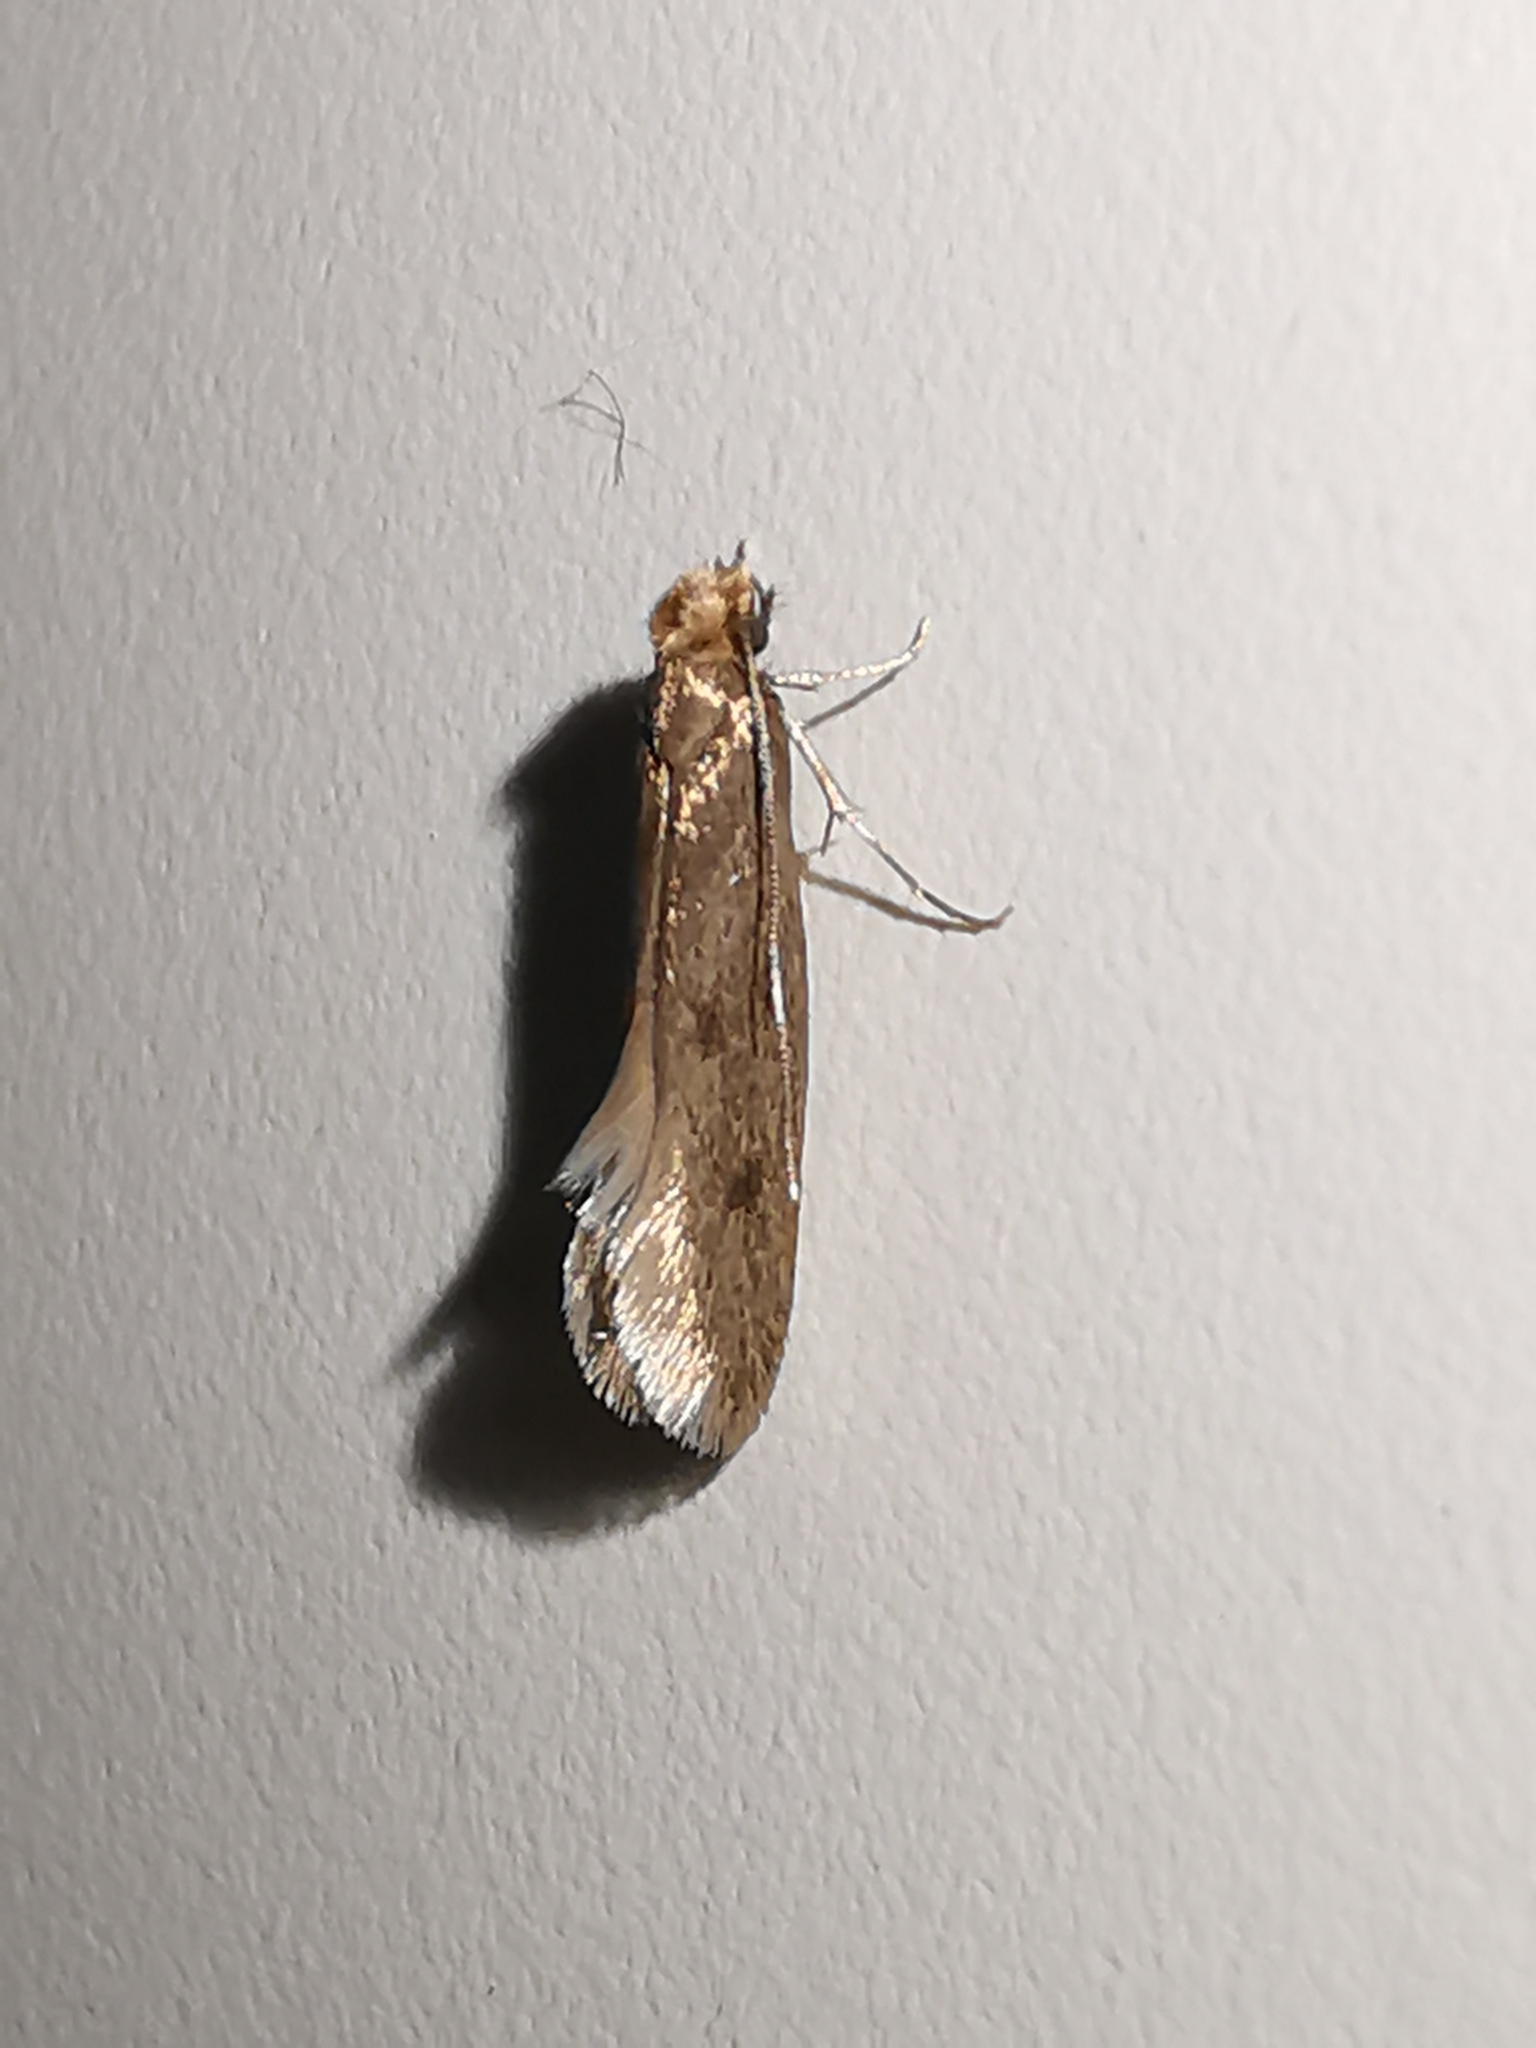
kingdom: Animalia
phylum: Arthropoda
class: Insecta
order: Lepidoptera
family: Tineidae
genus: Tinea
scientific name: Tinea pellionella
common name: Case-making clothes moth
